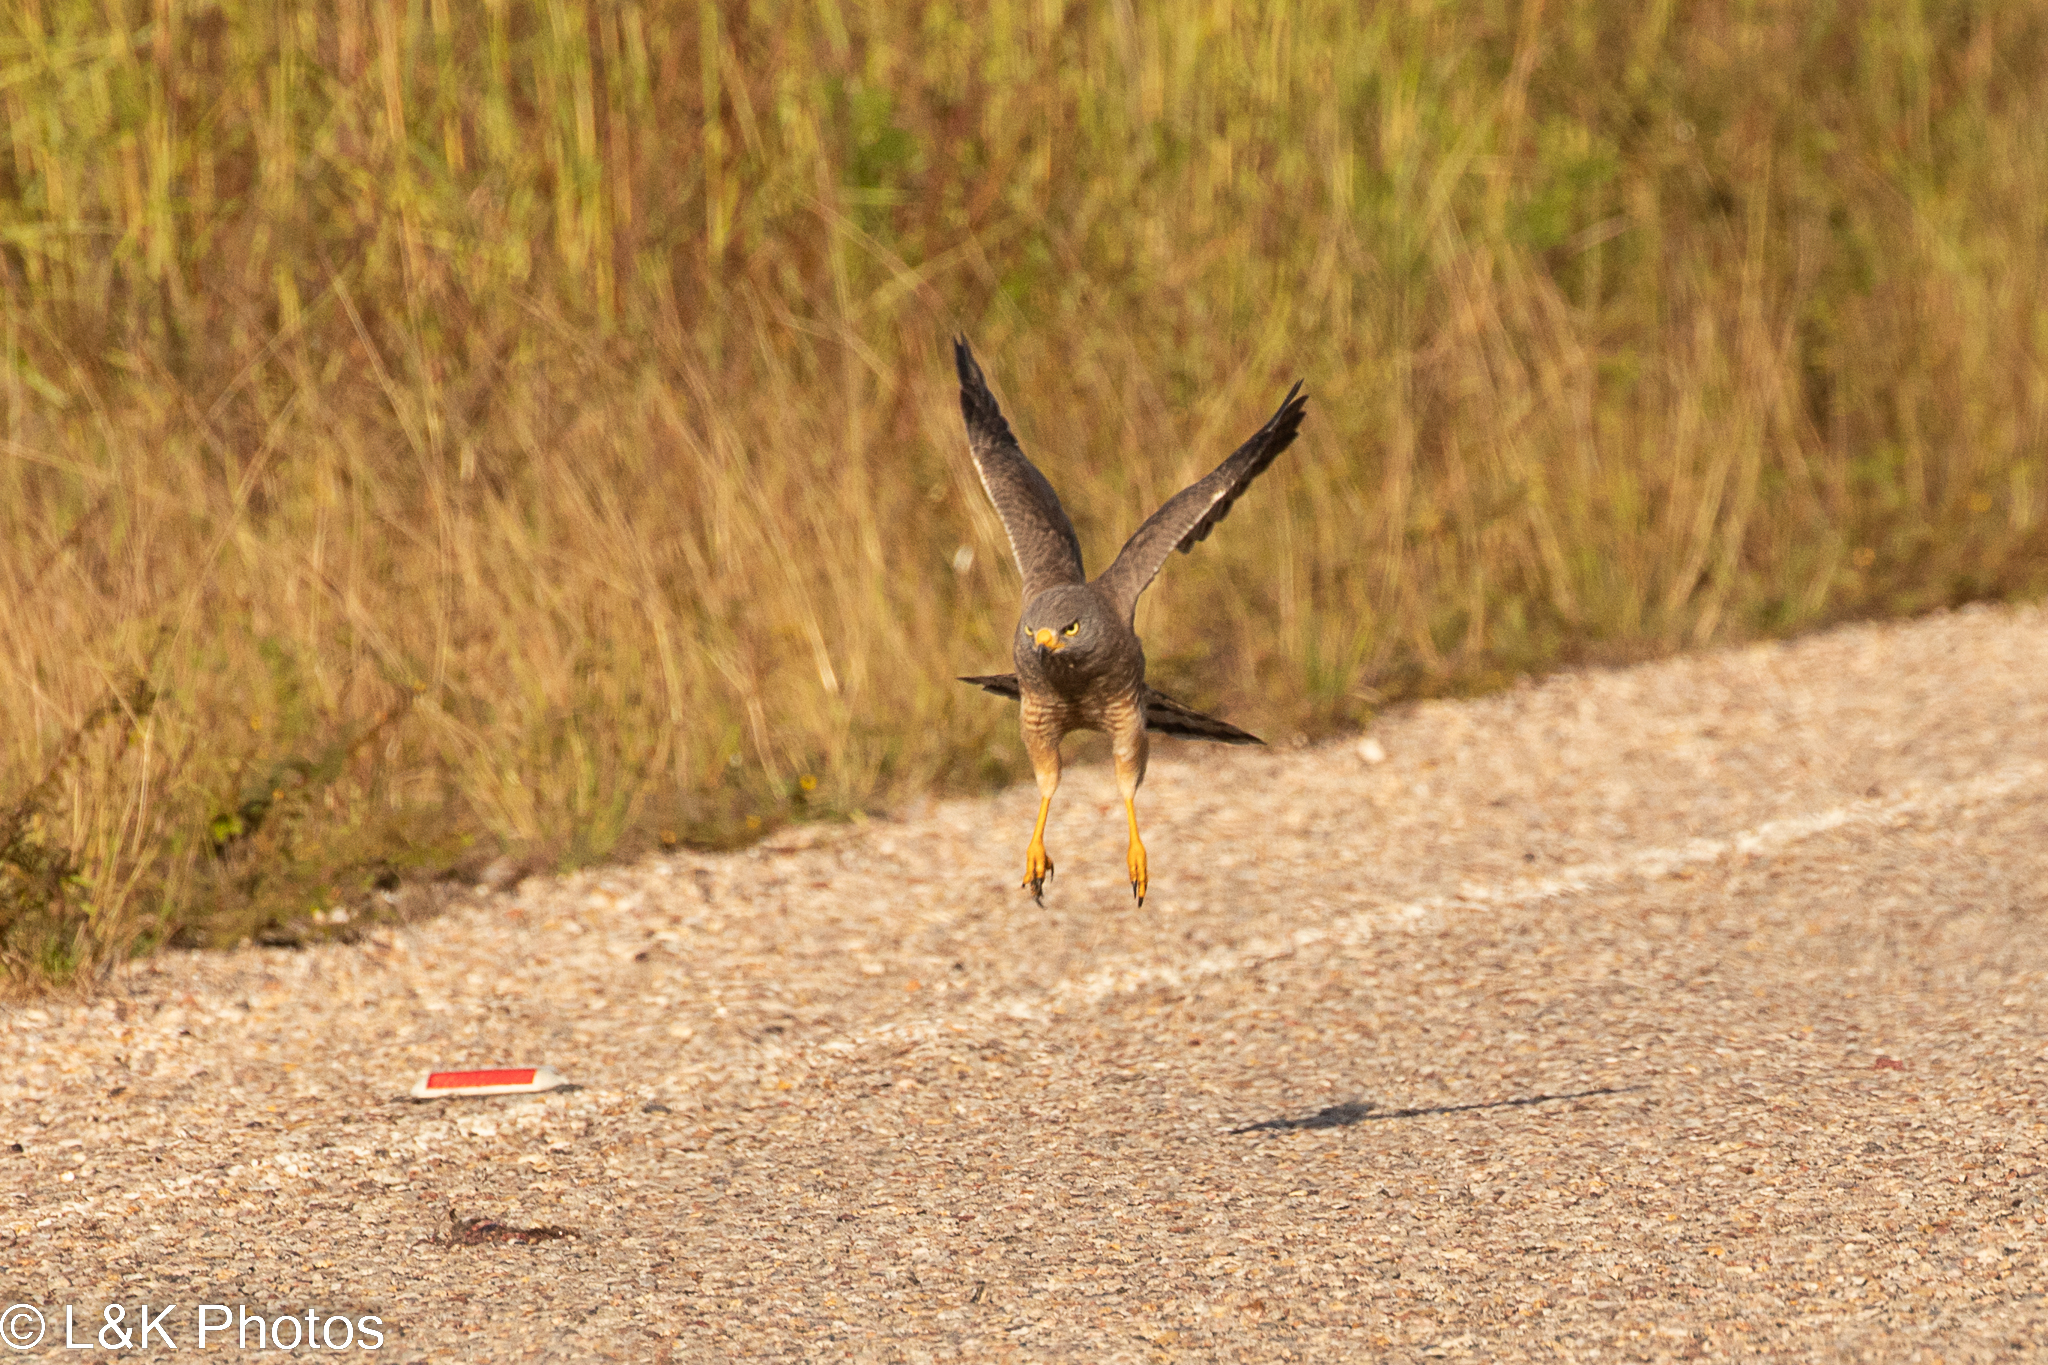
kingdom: Animalia
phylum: Chordata
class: Aves
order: Accipitriformes
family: Accipitridae
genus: Rupornis
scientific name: Rupornis magnirostris
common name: Roadside hawk
